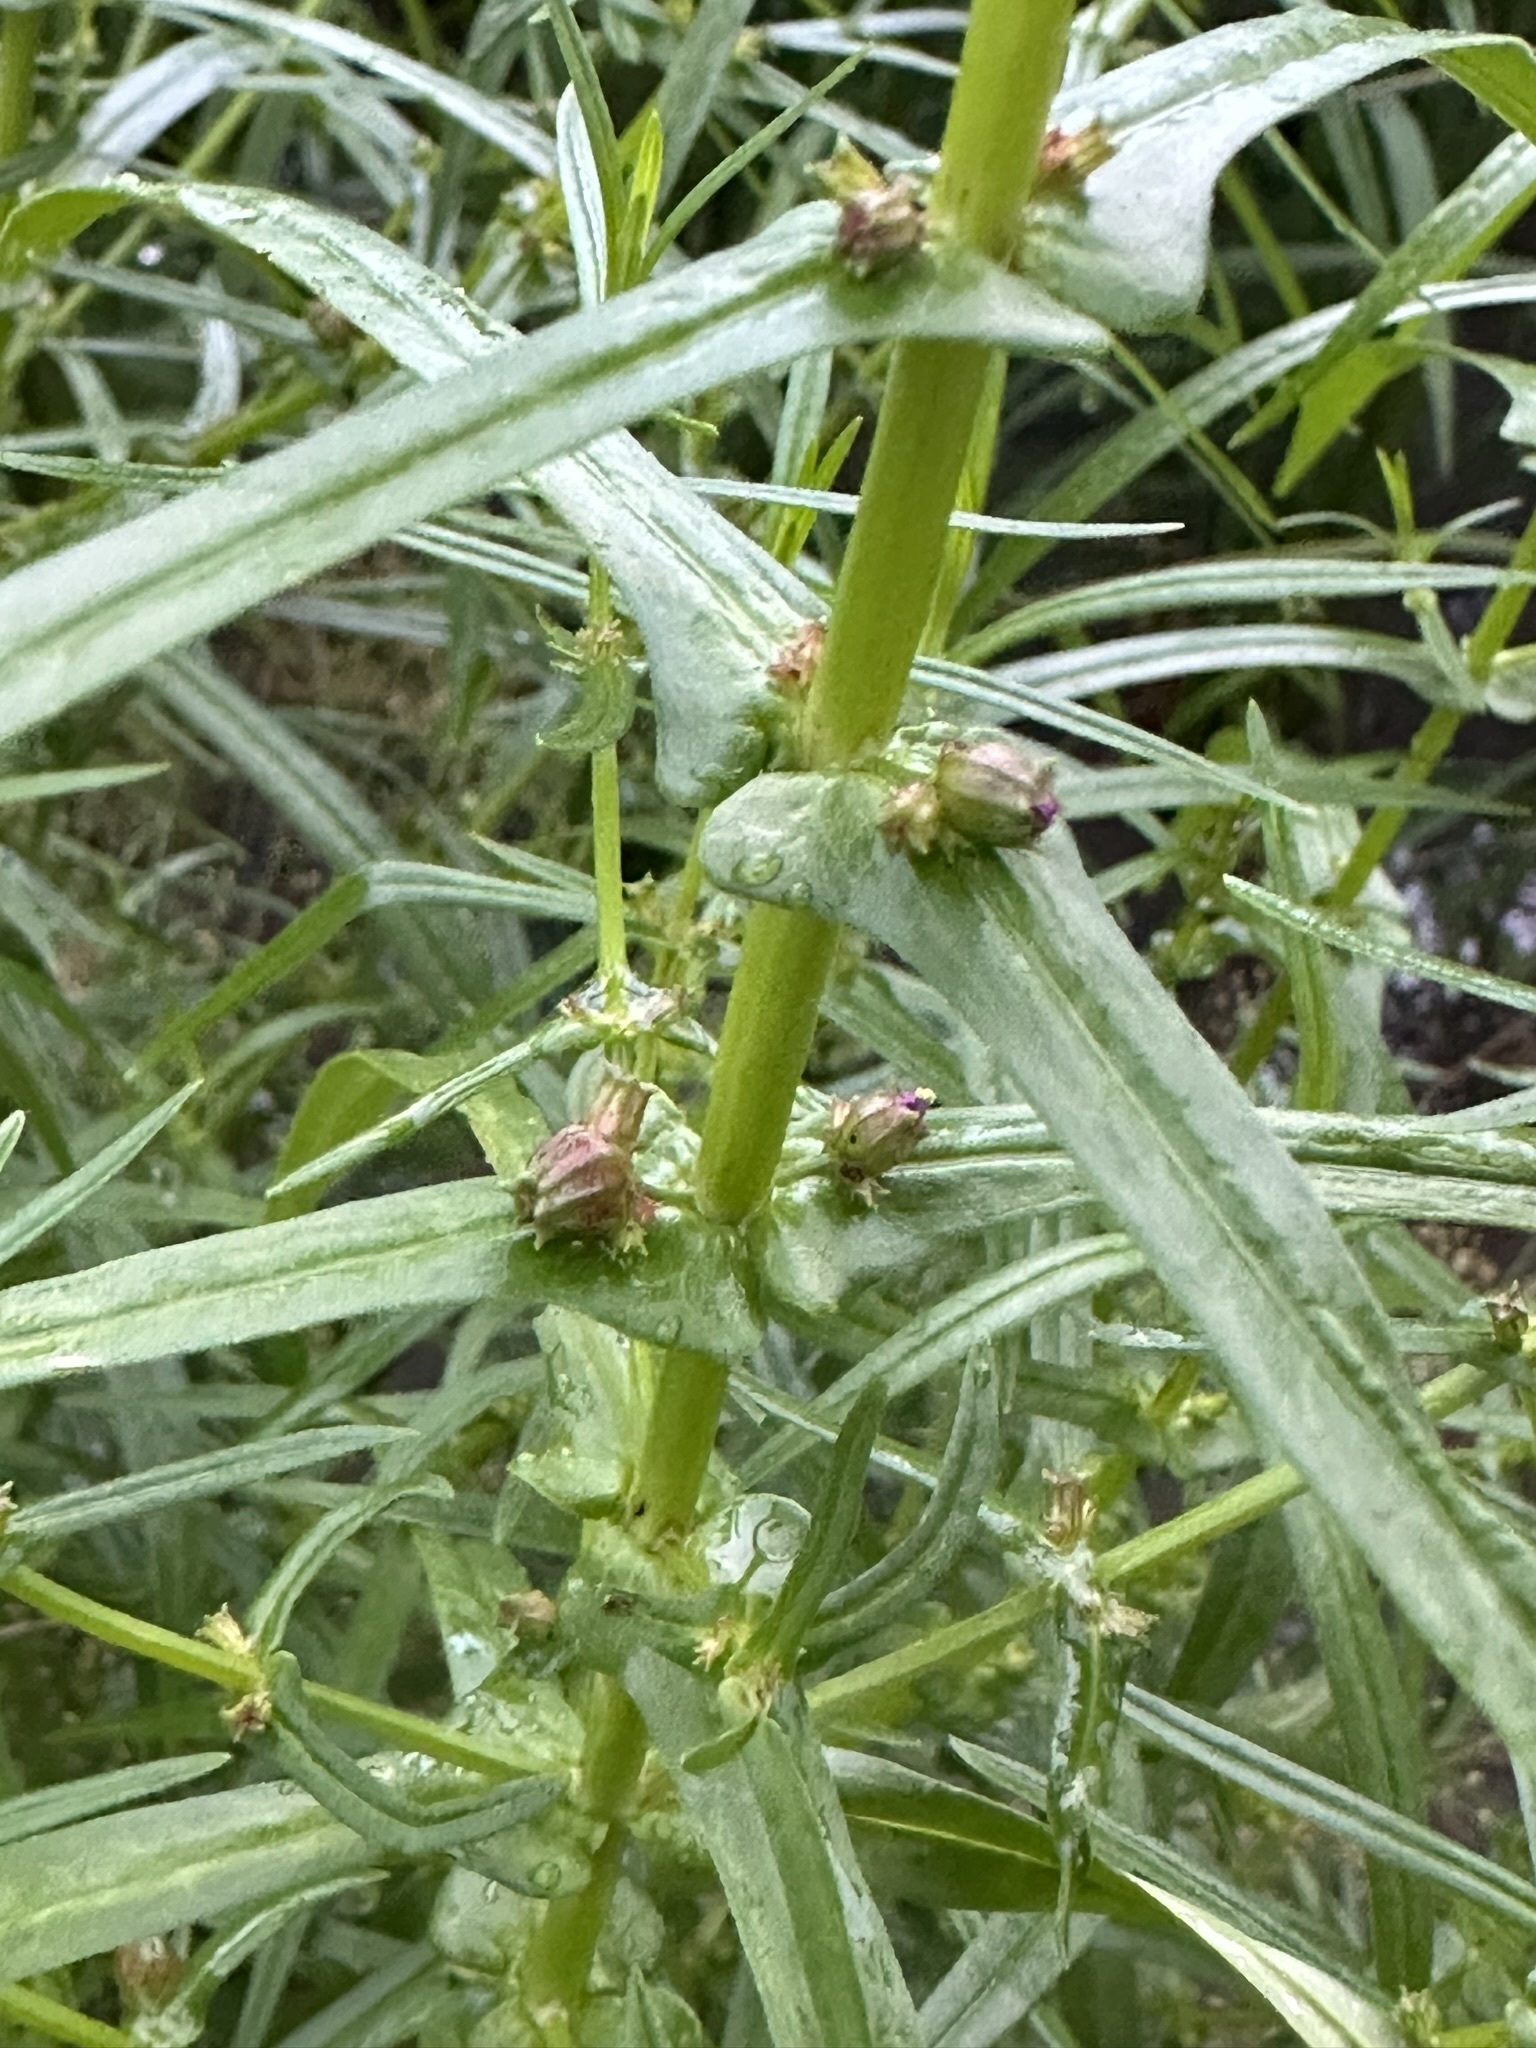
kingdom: Plantae
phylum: Tracheophyta
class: Magnoliopsida
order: Myrtales
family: Lythraceae
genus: Ammannia
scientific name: Ammannia coccinea
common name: Valley redstem
